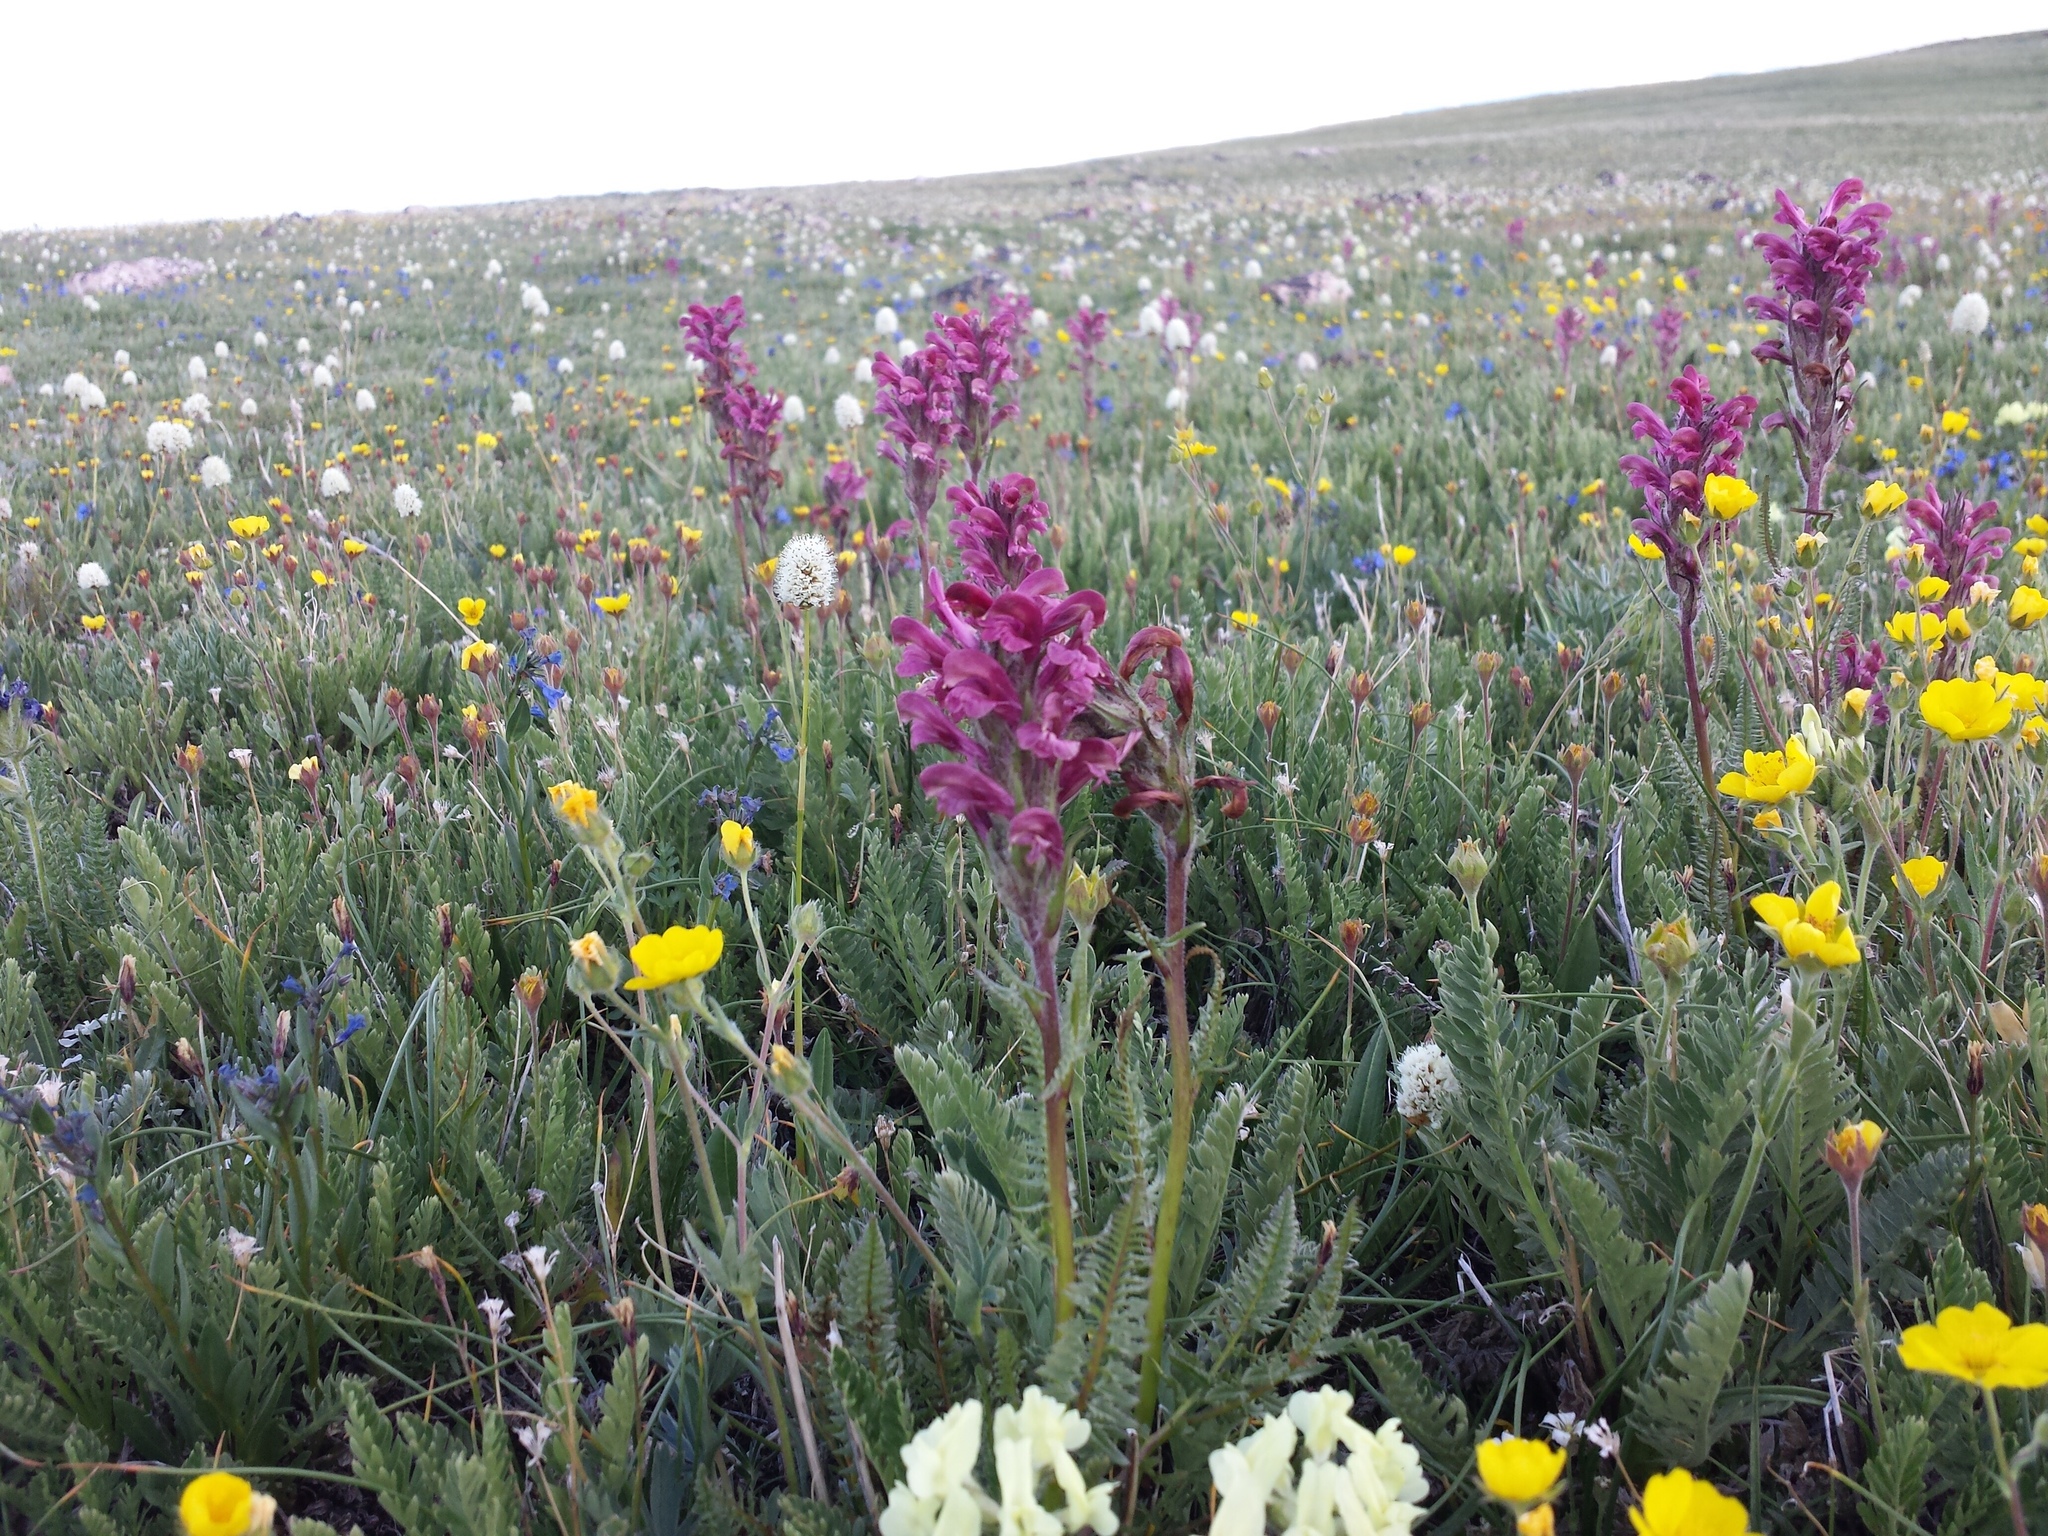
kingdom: Plantae
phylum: Tracheophyta
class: Magnoliopsida
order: Lamiales
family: Orobanchaceae
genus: Pedicularis
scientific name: Pedicularis cystopteridifolia
